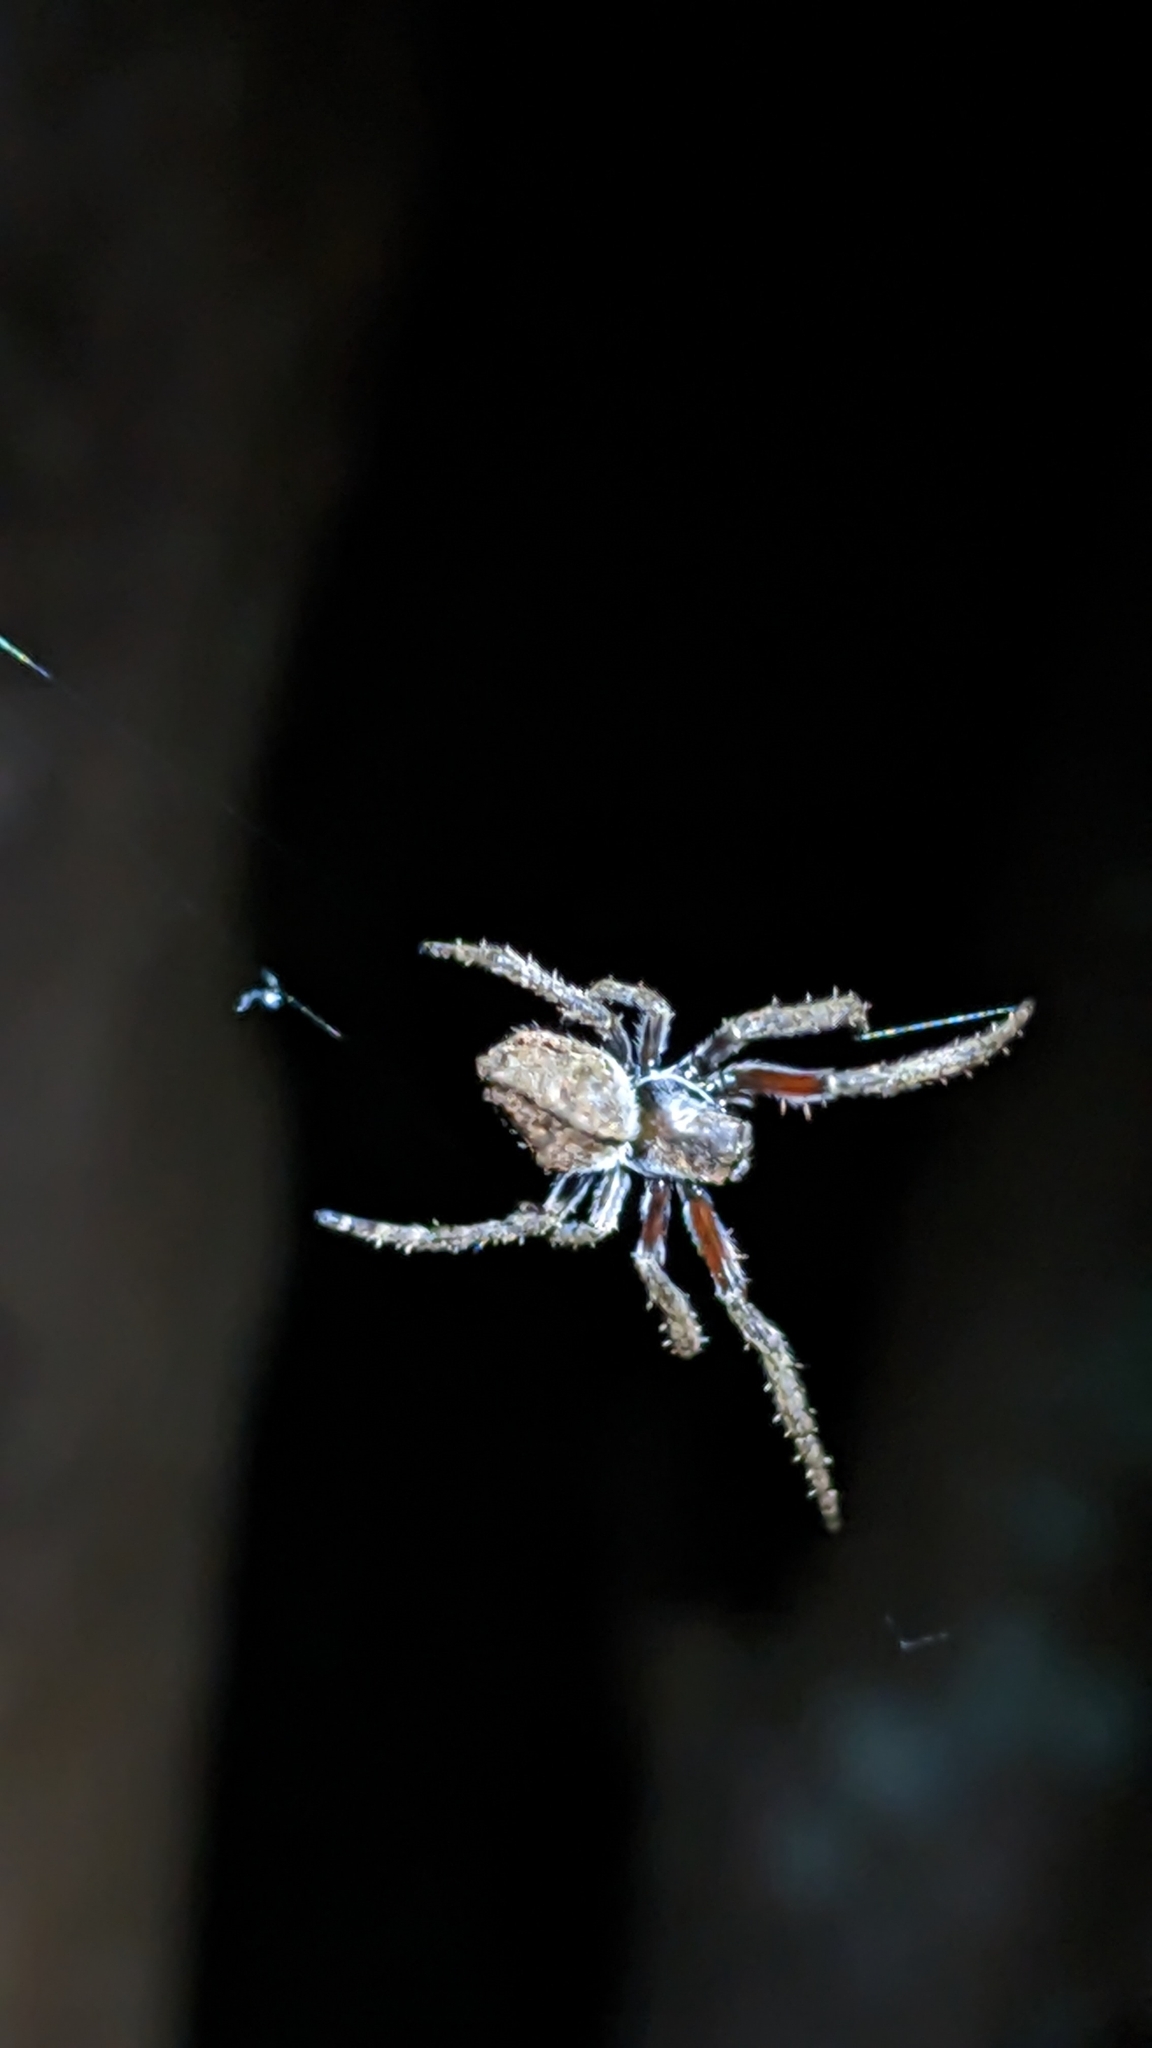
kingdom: Animalia
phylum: Arthropoda
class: Arachnida
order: Araneae
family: Araneidae
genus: Eriophora
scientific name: Eriophora pustulosa
